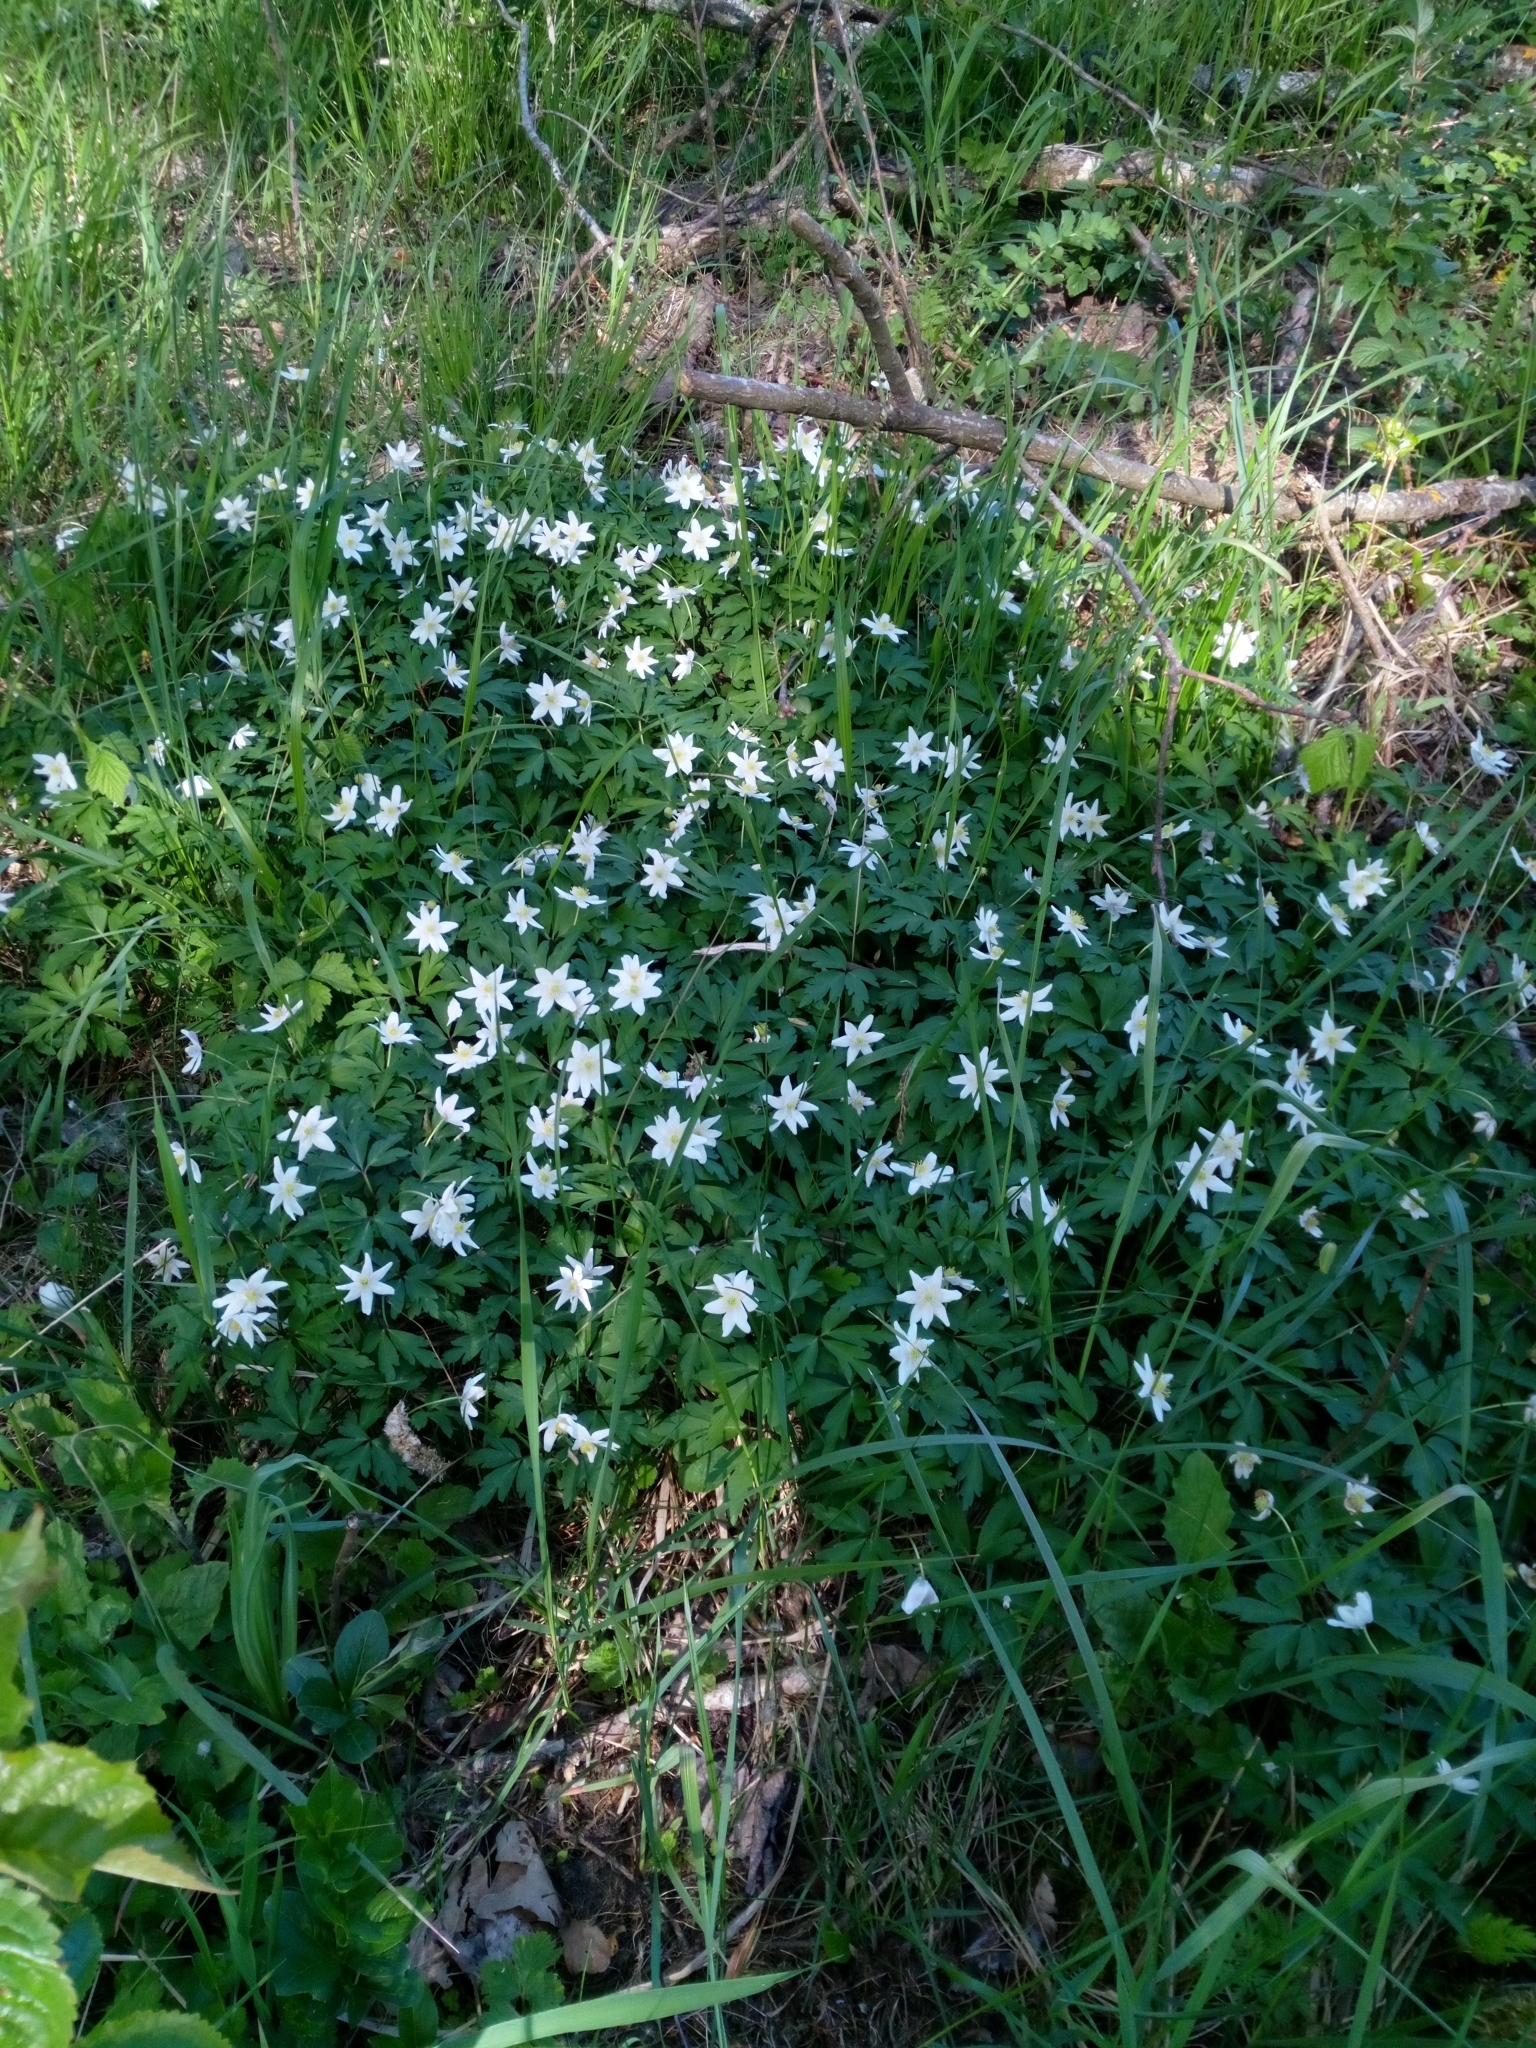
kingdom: Plantae
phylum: Tracheophyta
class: Magnoliopsida
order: Ranunculales
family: Ranunculaceae
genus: Anemone
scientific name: Anemone nemorosa
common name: Wood anemone
